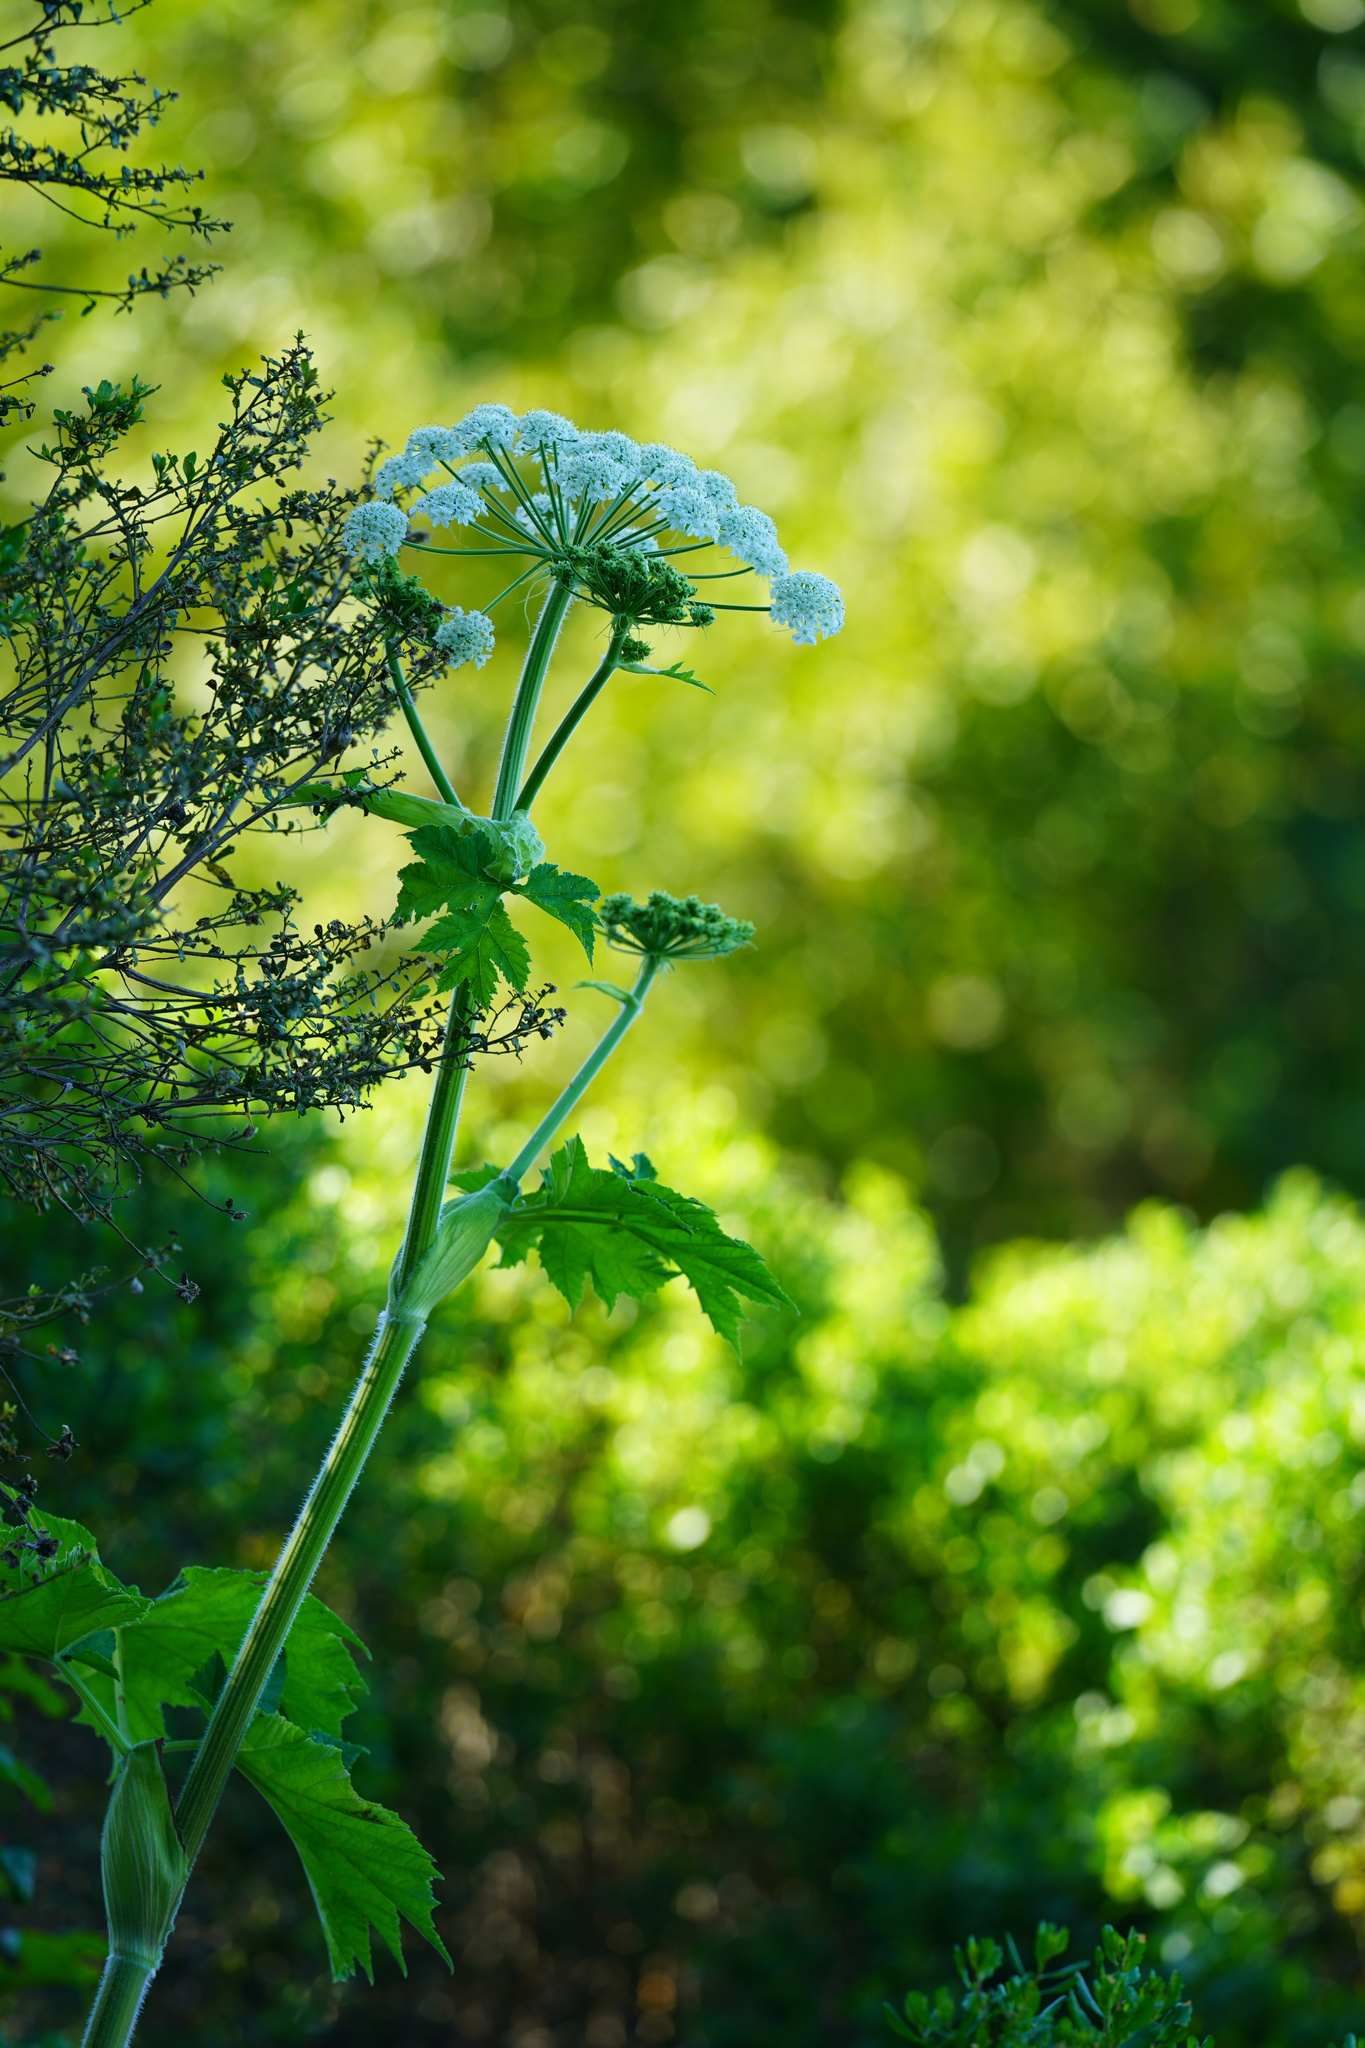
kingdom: Plantae
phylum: Tracheophyta
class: Magnoliopsida
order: Apiales
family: Apiaceae
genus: Heracleum
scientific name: Heracleum maximum
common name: American cow parsnip
